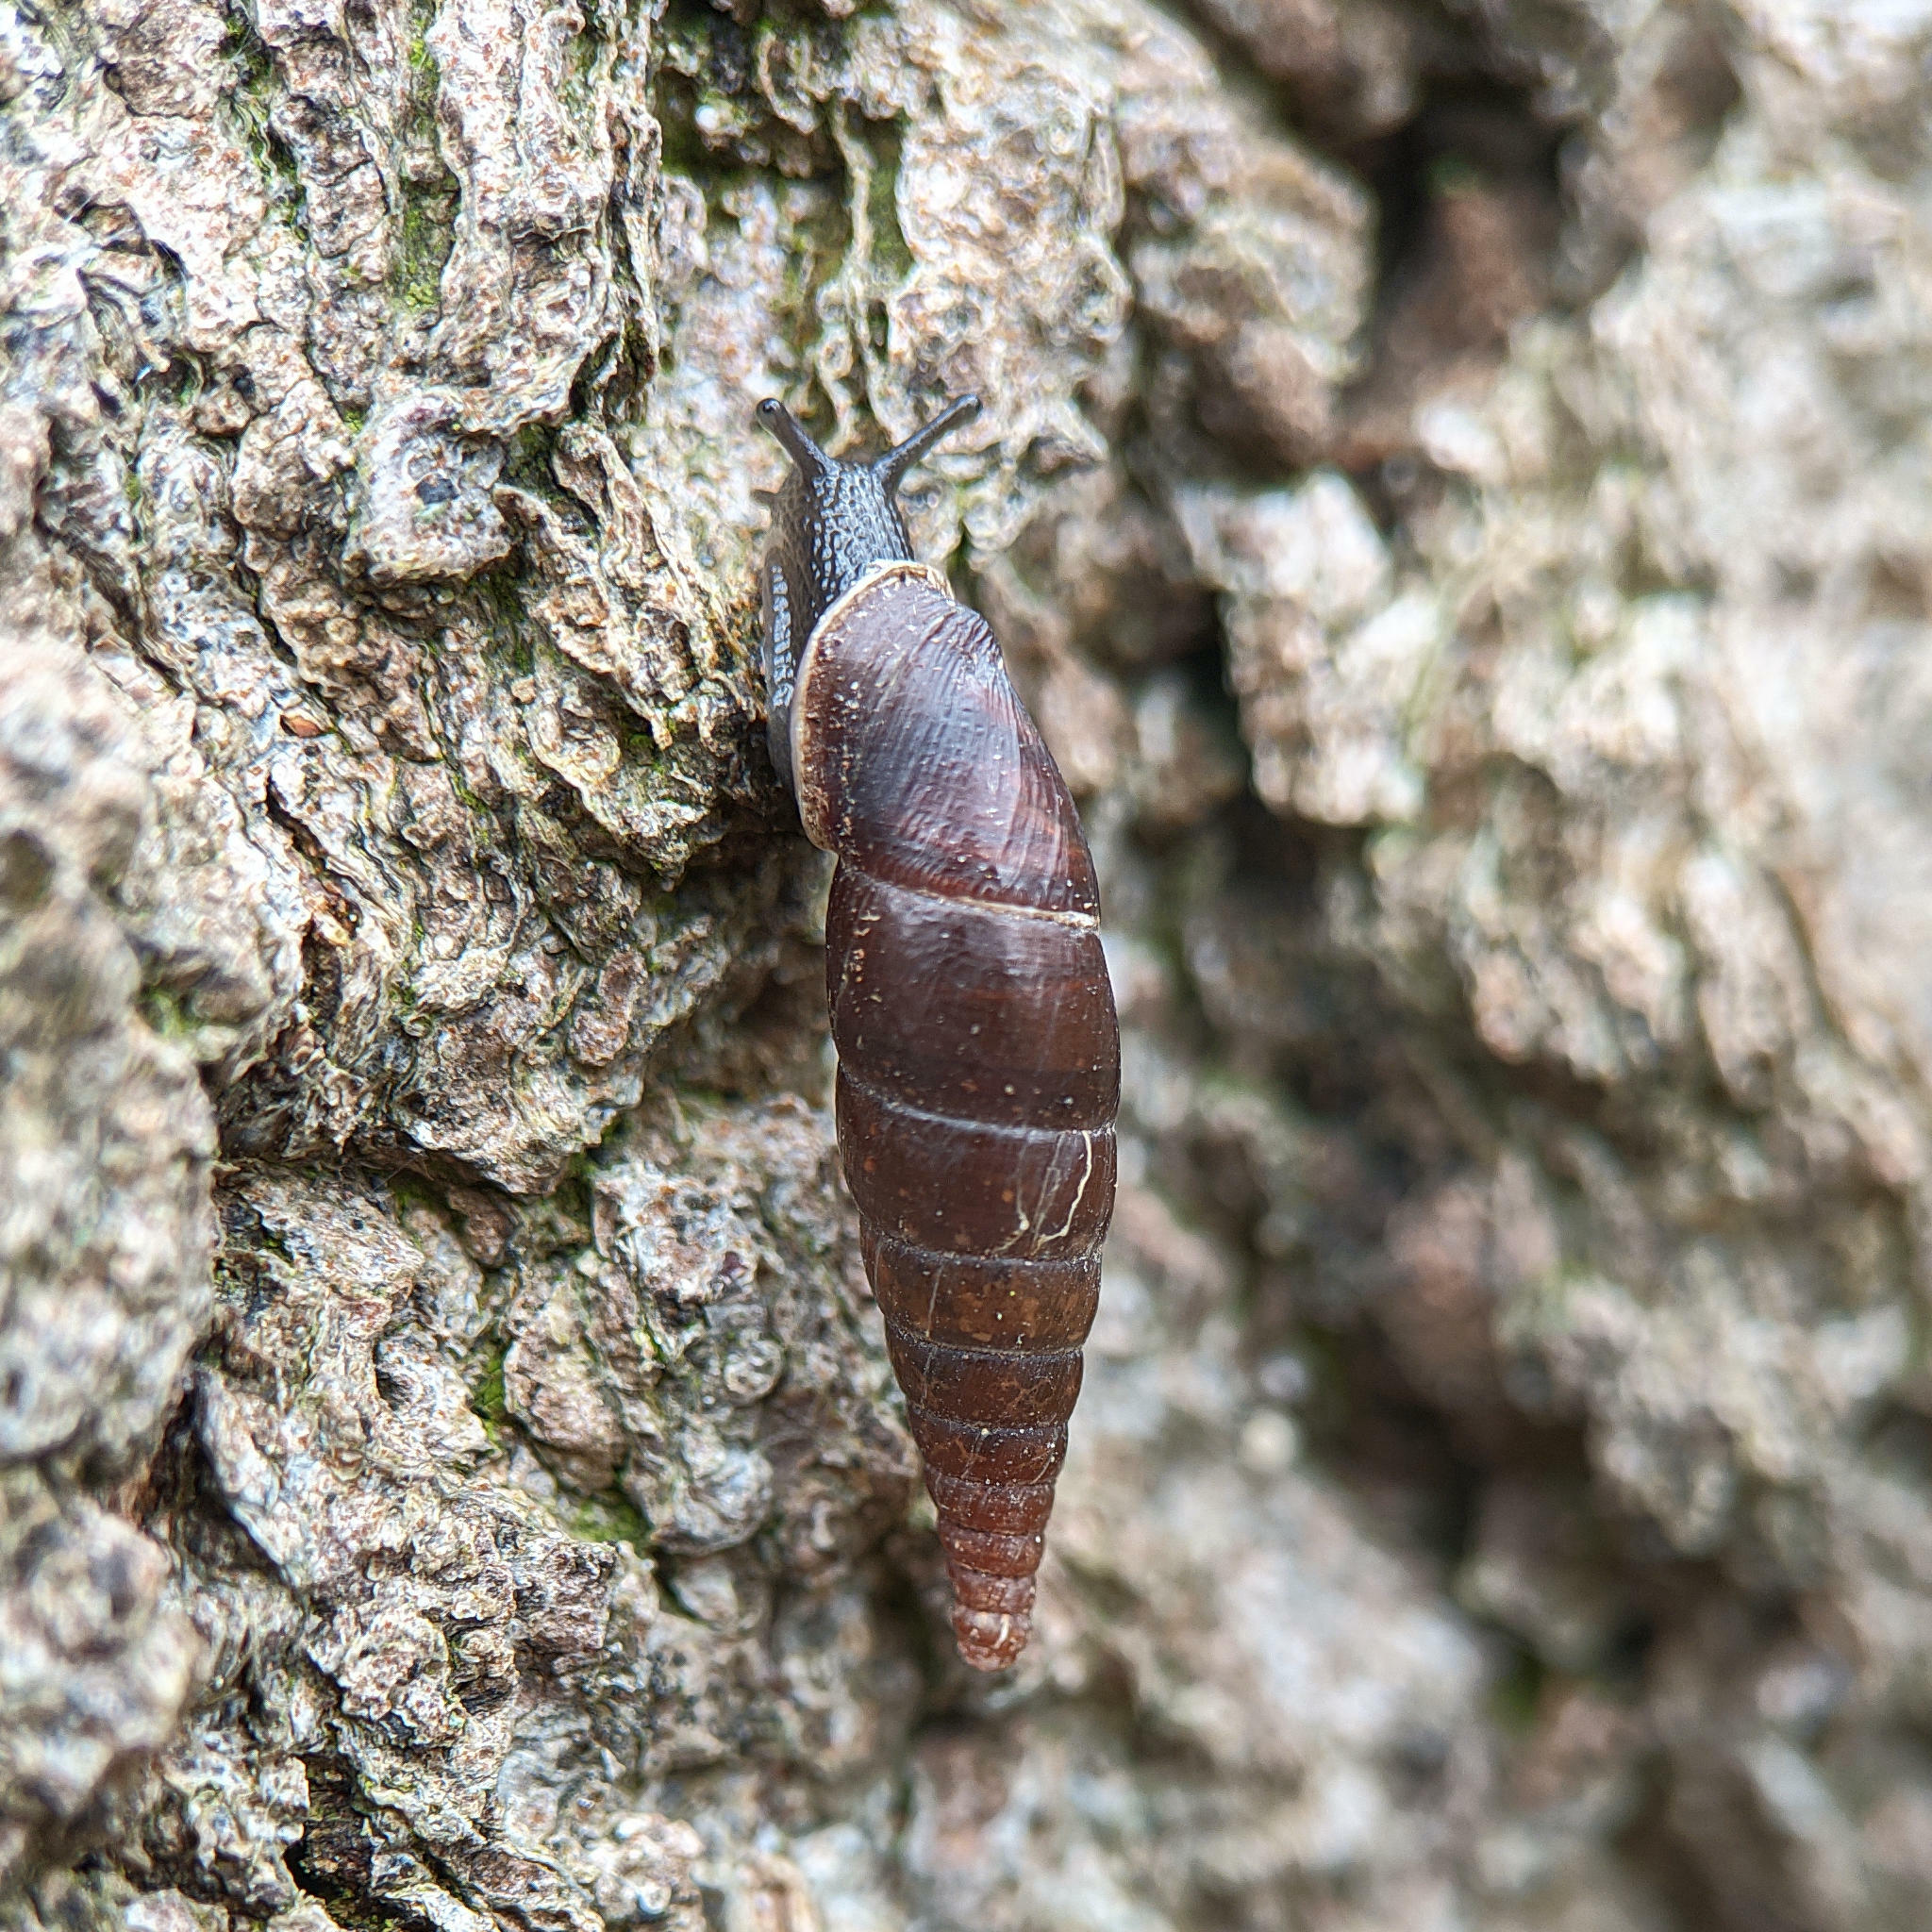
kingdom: Animalia
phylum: Mollusca
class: Gastropoda
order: Stylommatophora
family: Clausiliidae
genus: Cochlodina
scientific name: Cochlodina laminata
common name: Plaited door snail
